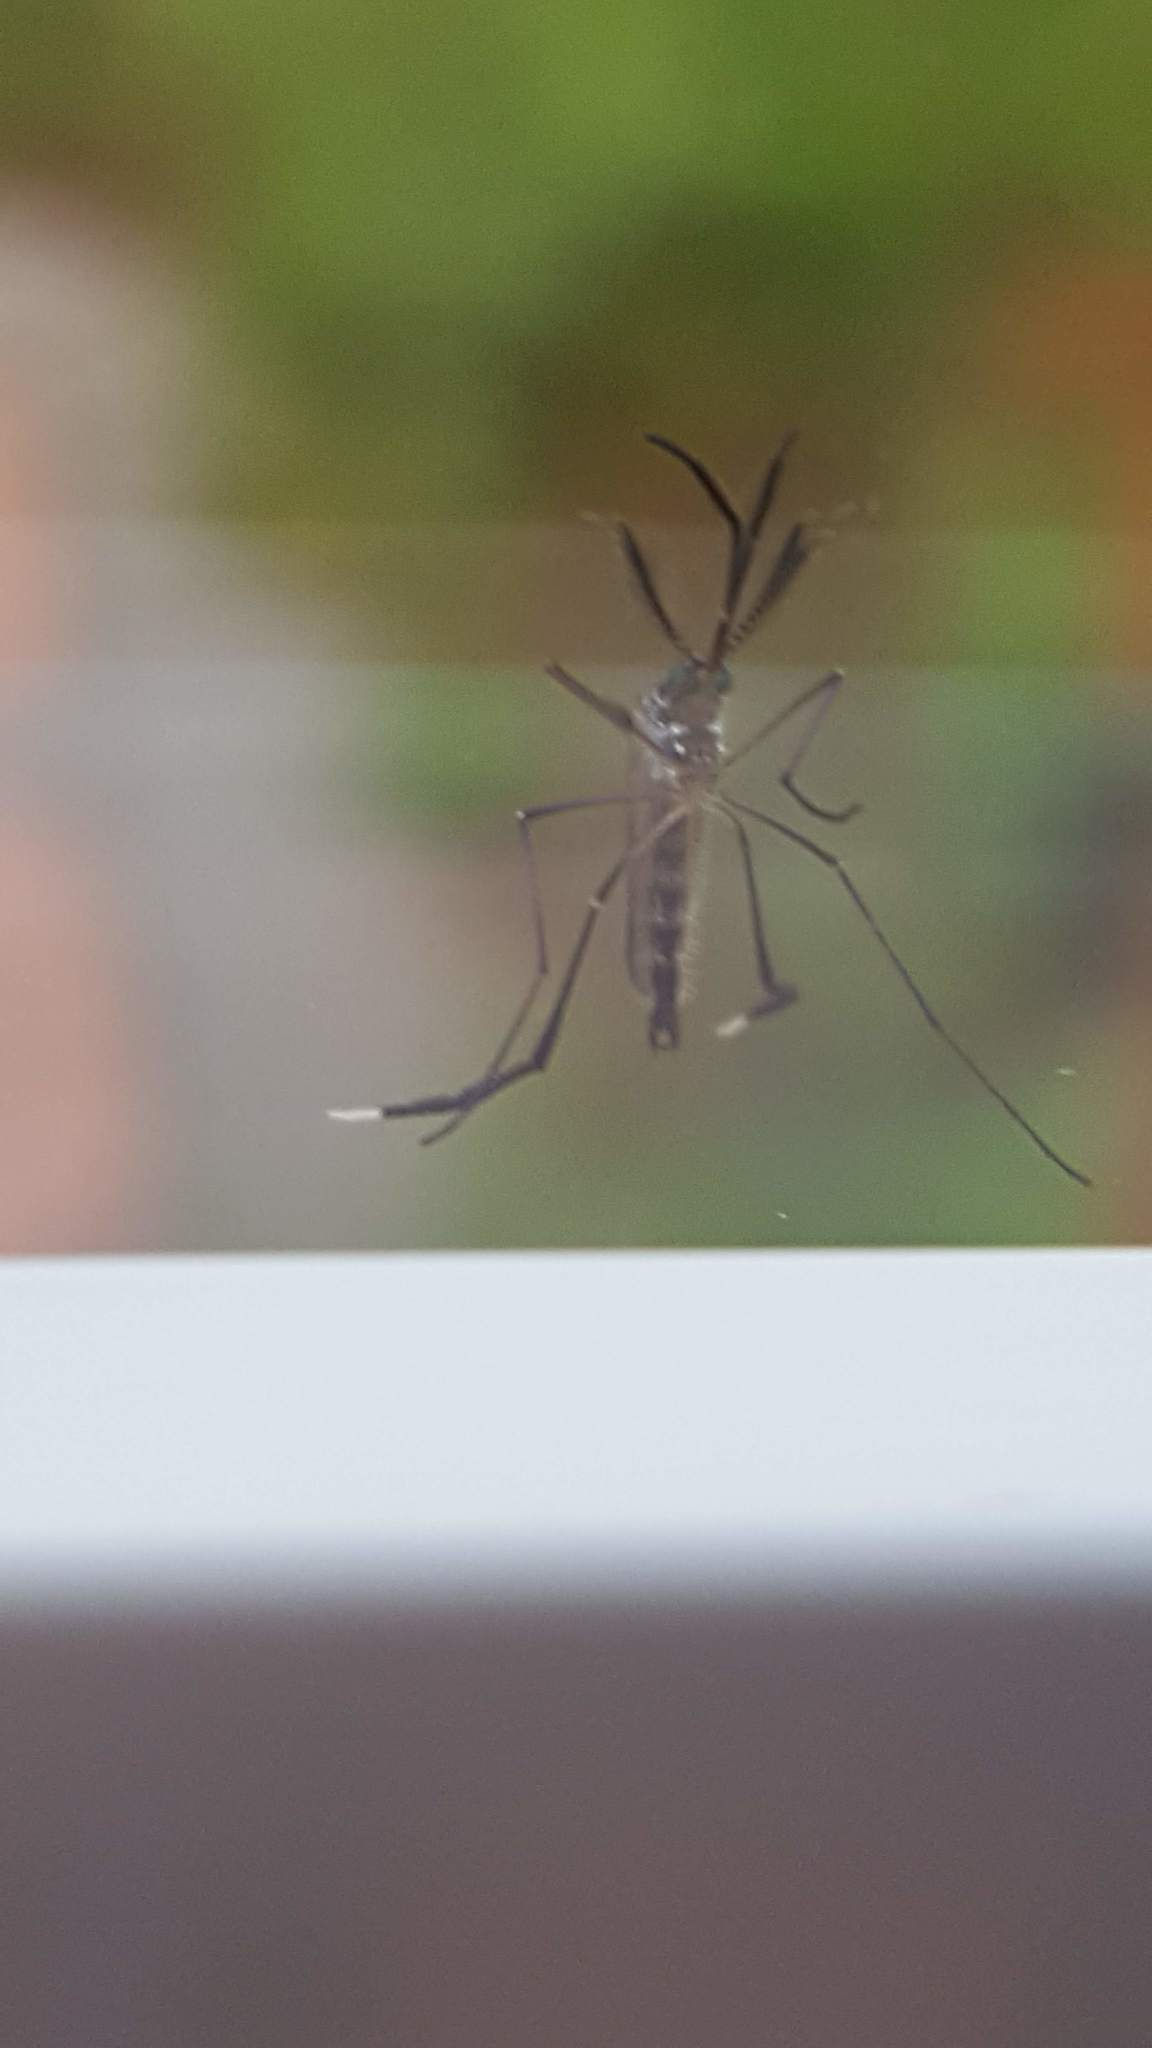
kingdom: Animalia
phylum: Arthropoda
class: Insecta
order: Diptera
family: Culicidae
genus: Psorophora
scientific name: Psorophora
